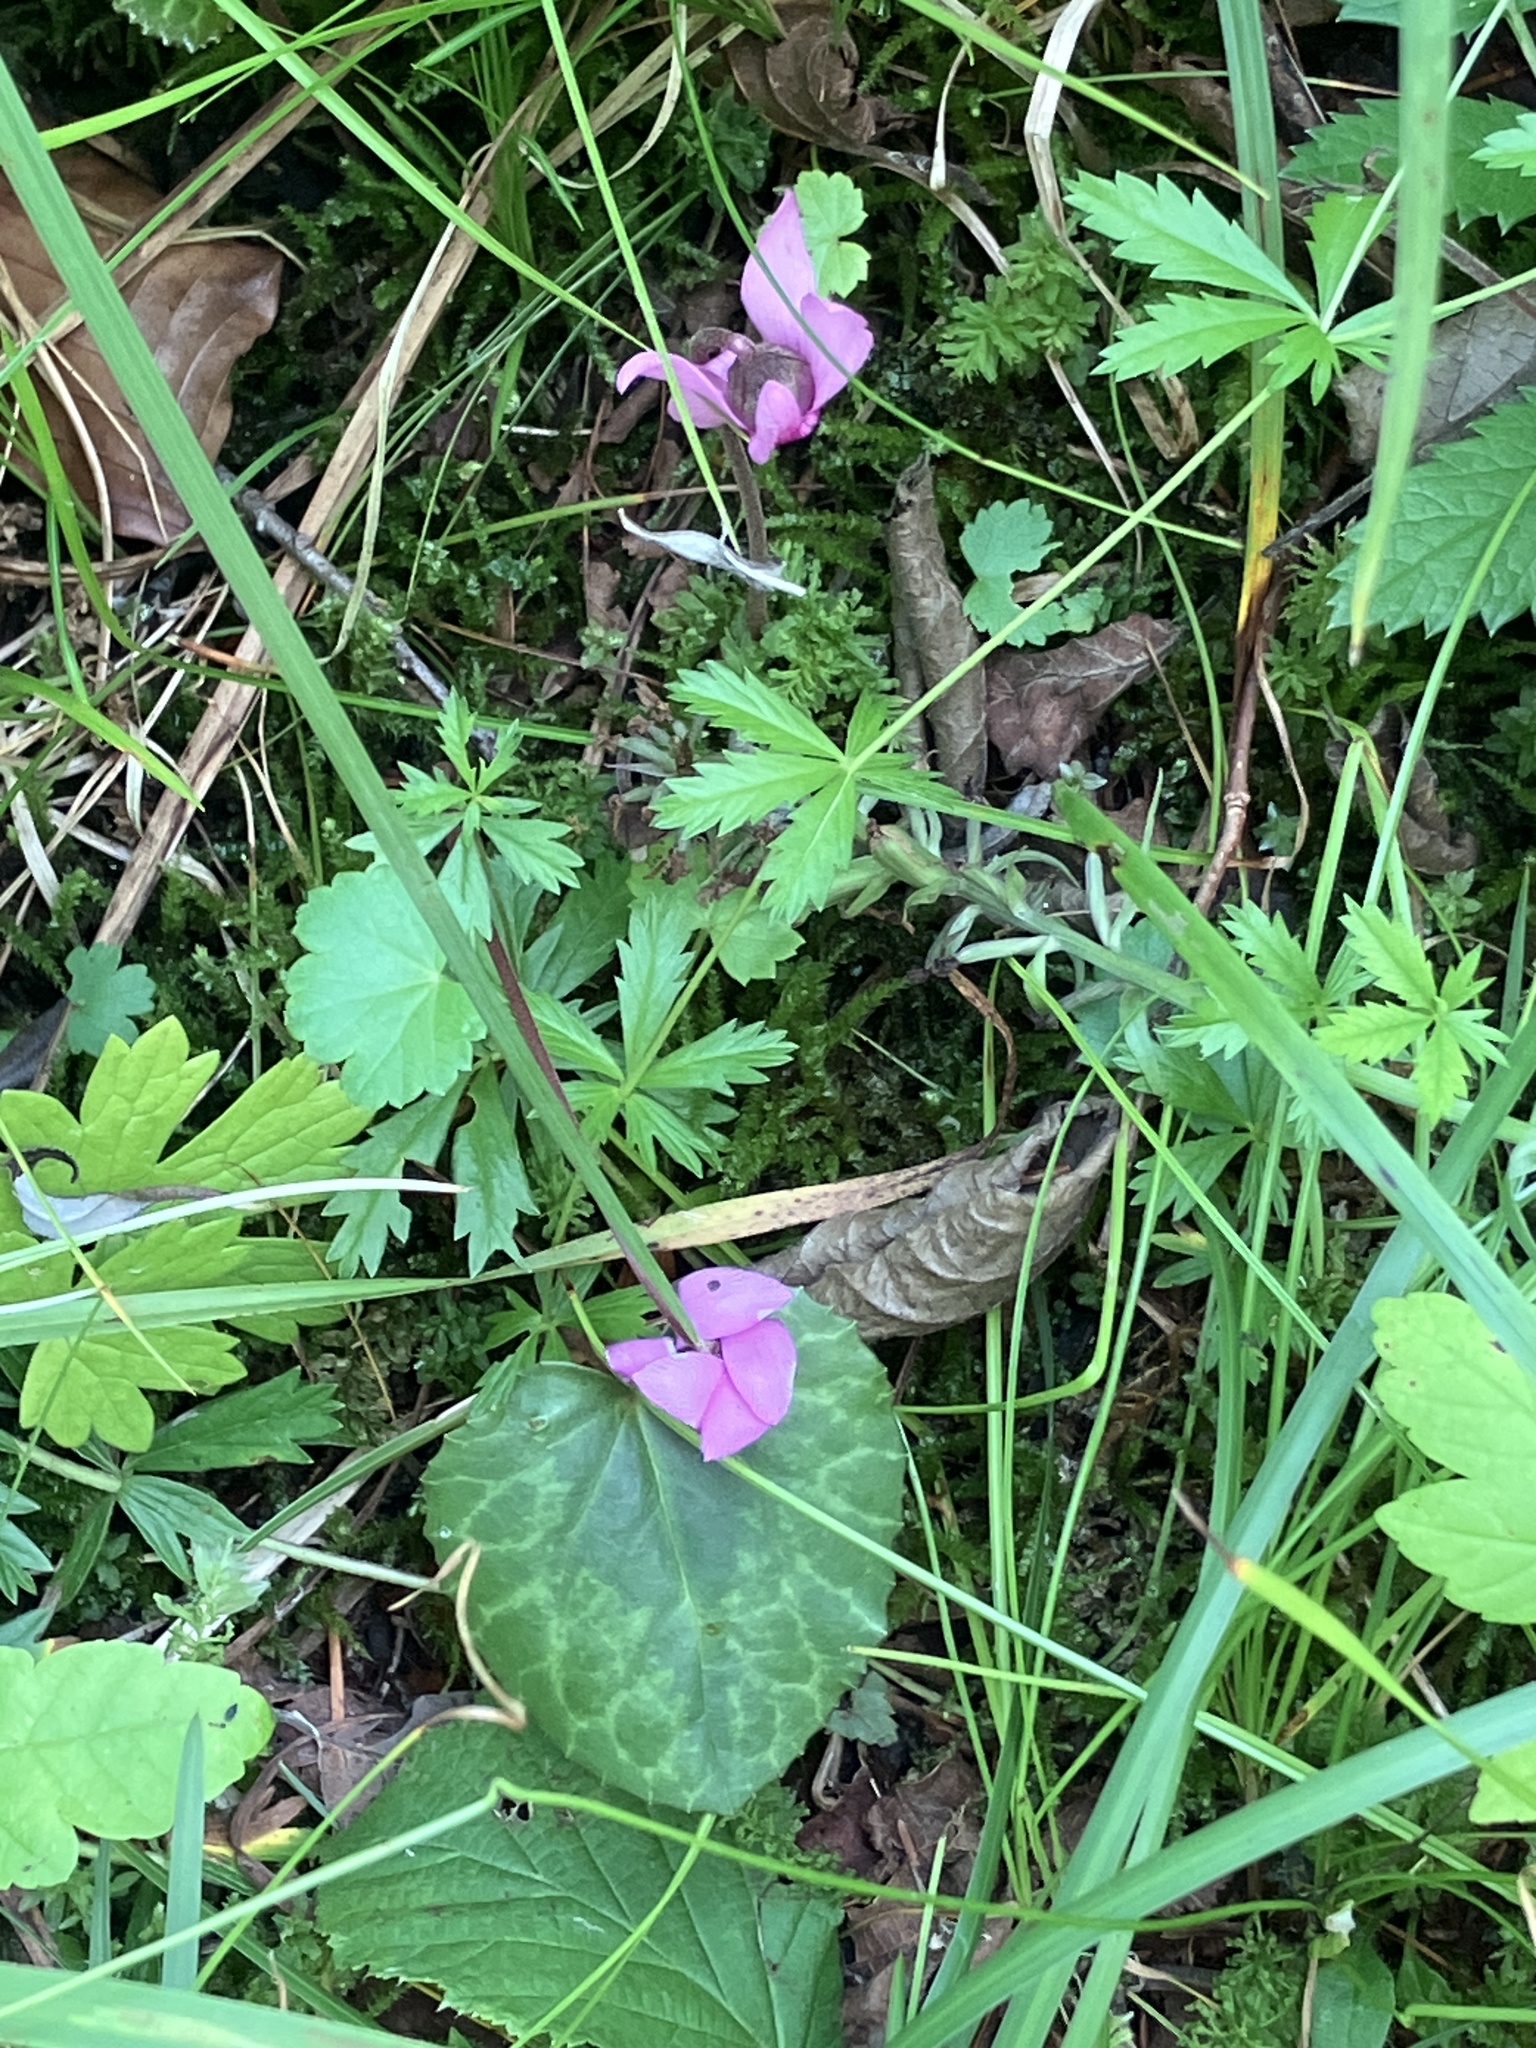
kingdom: Plantae
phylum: Tracheophyta
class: Magnoliopsida
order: Ericales
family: Primulaceae
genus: Cyclamen
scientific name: Cyclamen purpurascens
